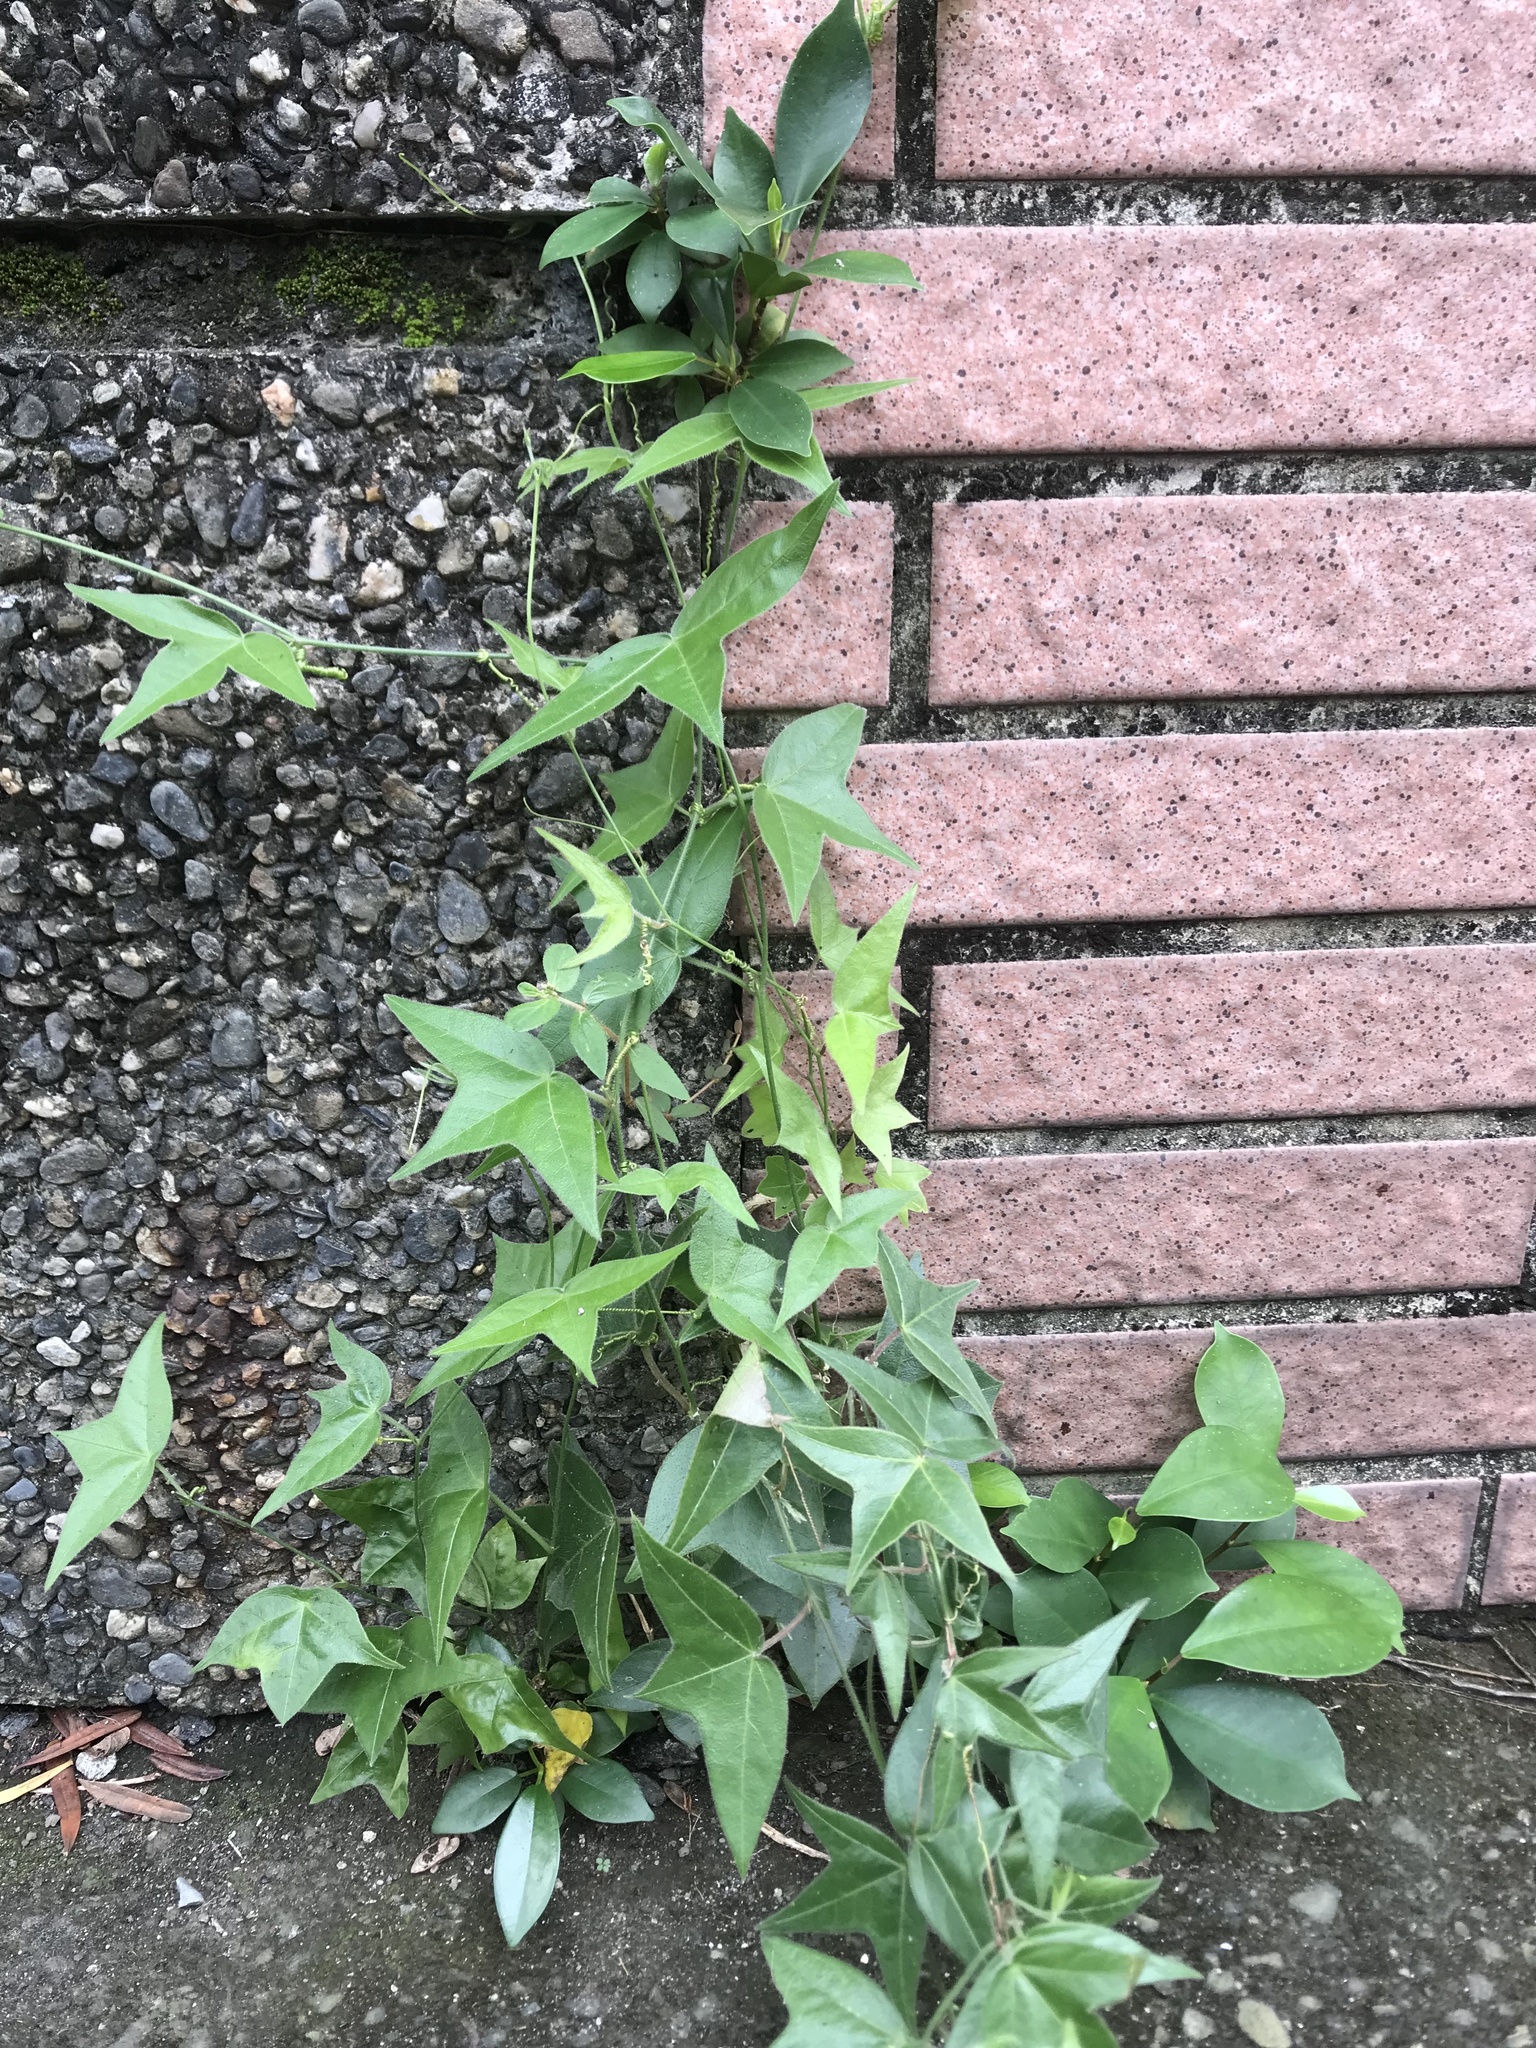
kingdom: Plantae
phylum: Tracheophyta
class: Magnoliopsida
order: Malpighiales
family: Passifloraceae
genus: Passiflora
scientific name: Passiflora suberosa
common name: Wild passionfruit
